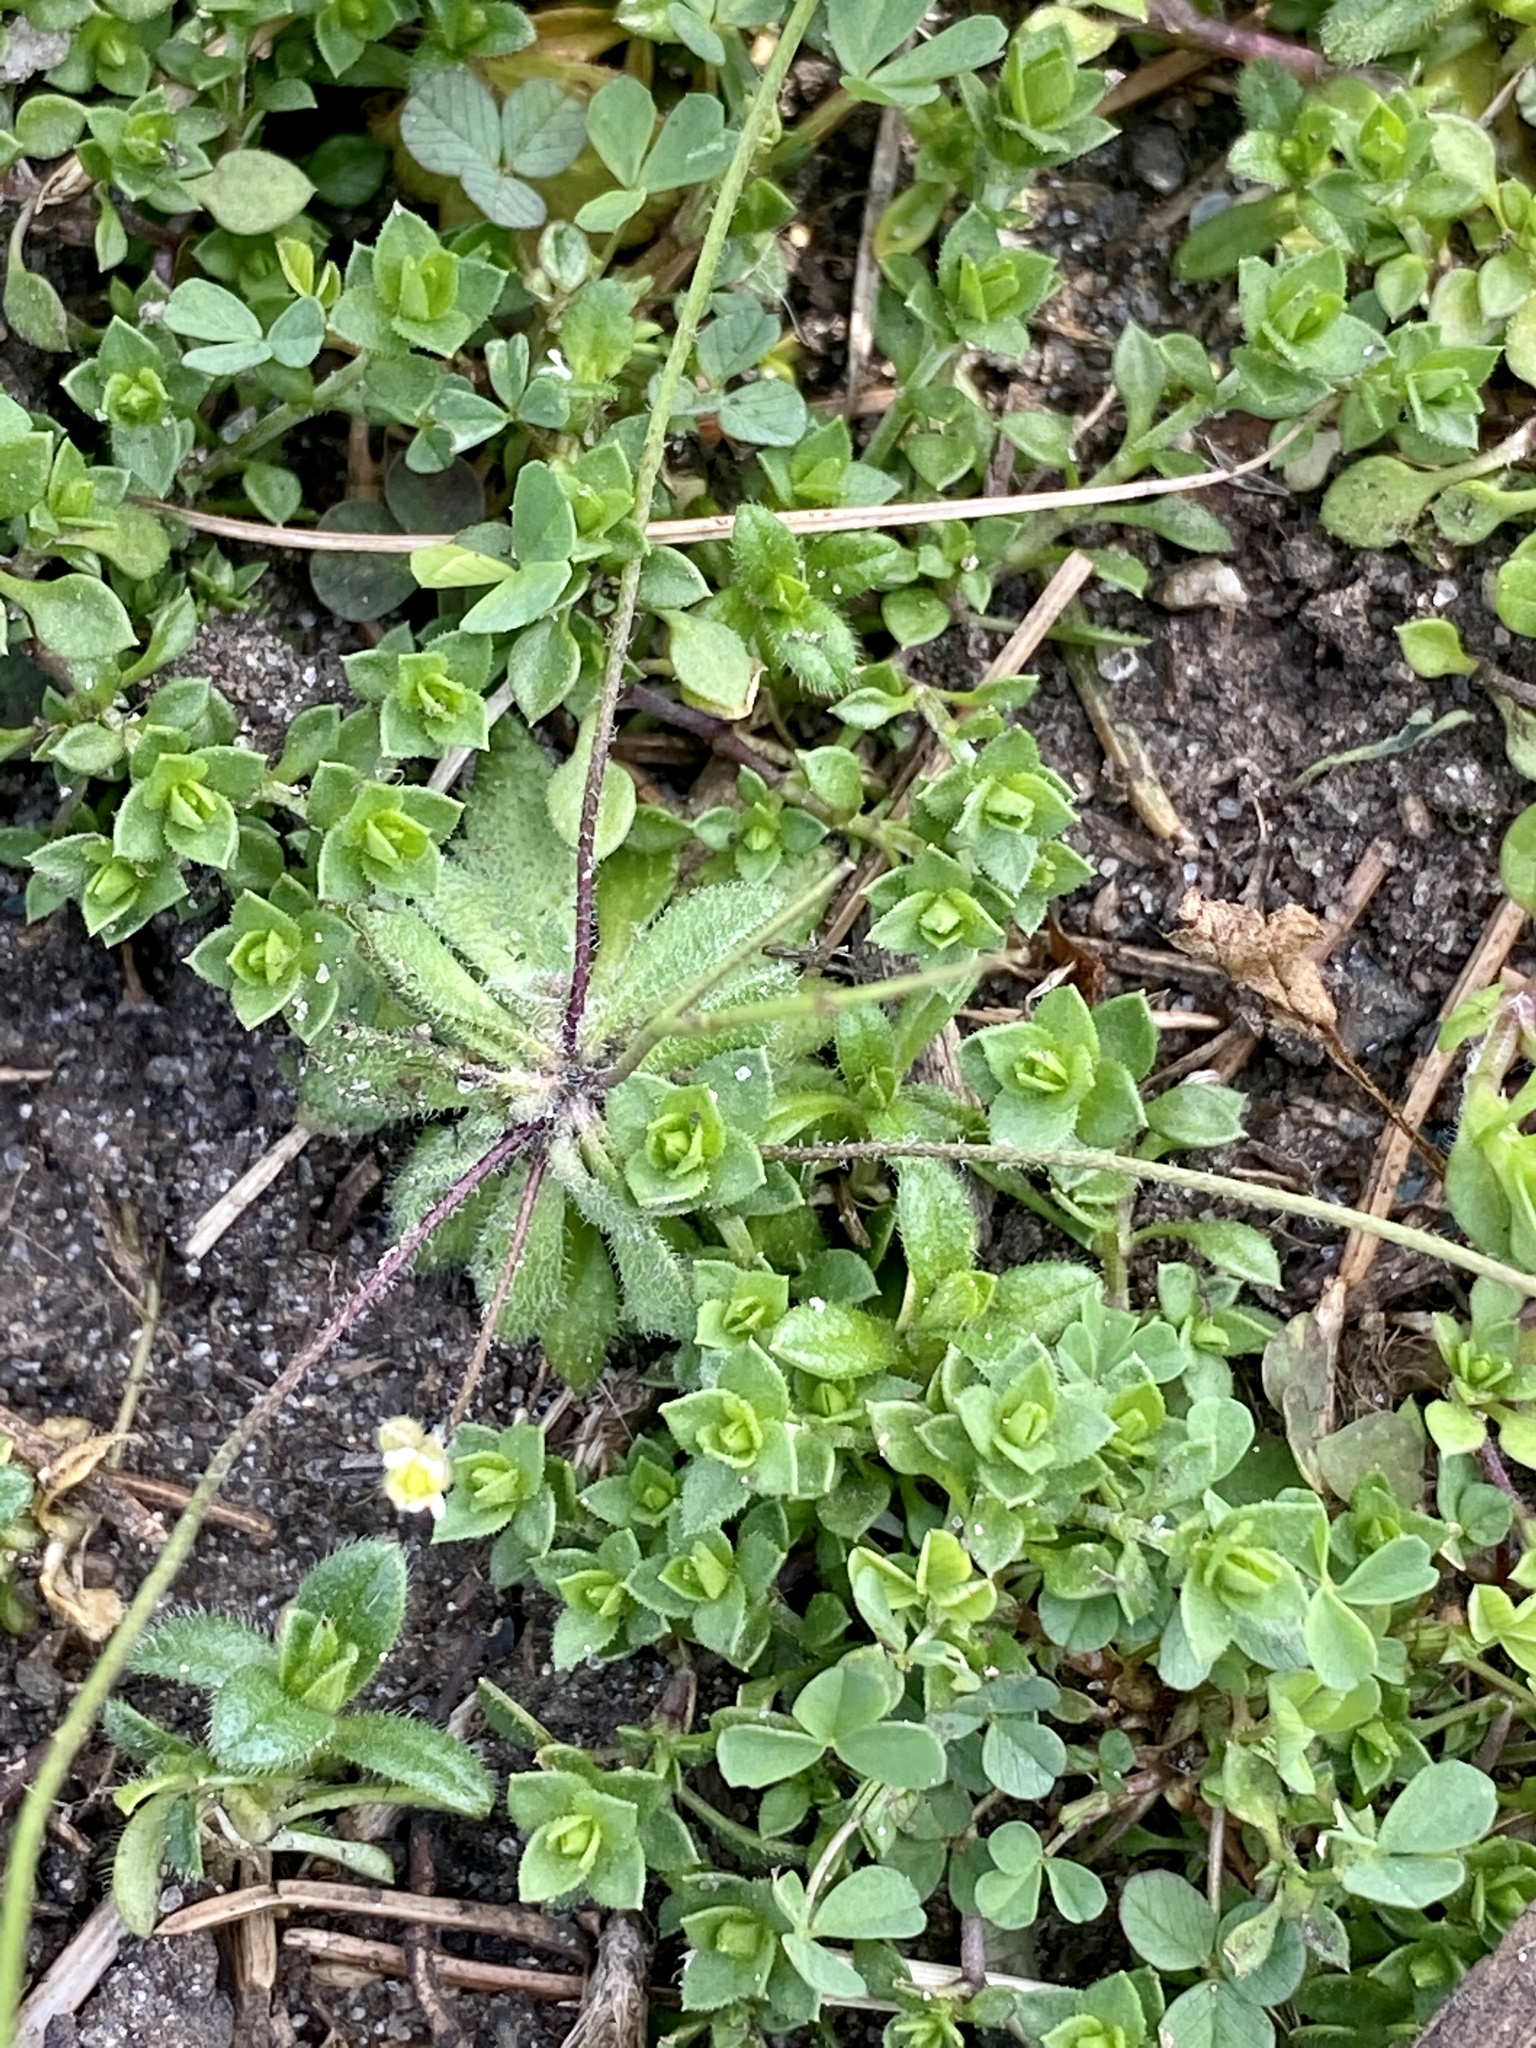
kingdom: Plantae
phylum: Tracheophyta
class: Magnoliopsida
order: Brassicales
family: Brassicaceae
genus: Draba
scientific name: Draba verna
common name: Spring draba
